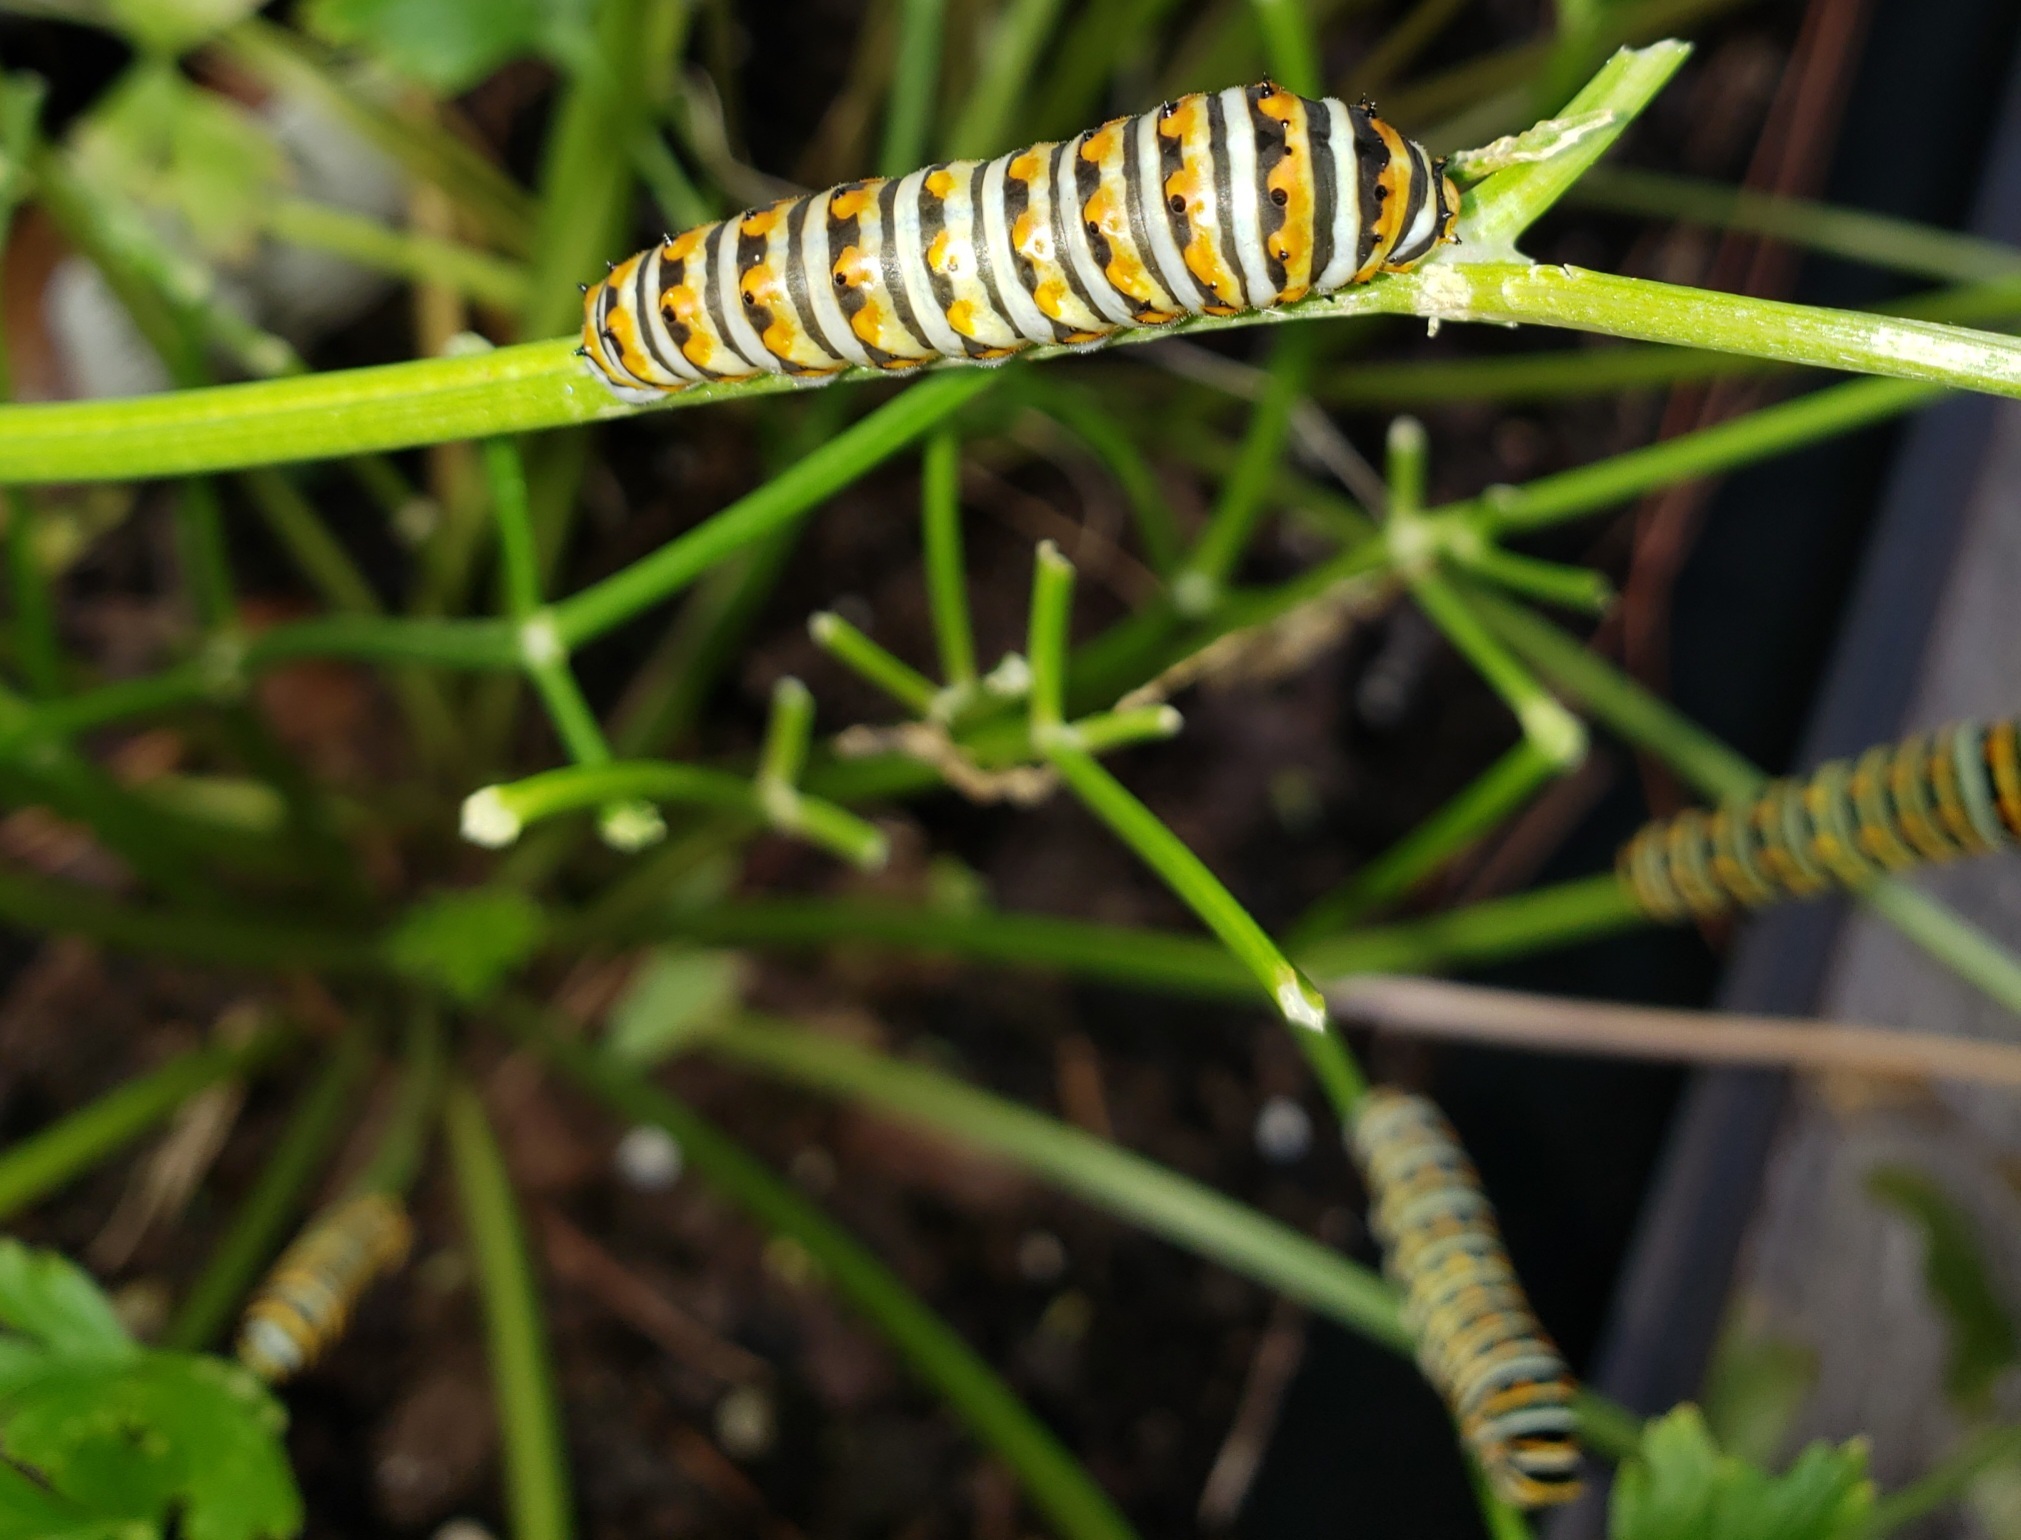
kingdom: Animalia
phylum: Arthropoda
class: Insecta
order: Lepidoptera
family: Papilionidae
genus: Papilio
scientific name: Papilio polyxenes
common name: Black swallowtail
